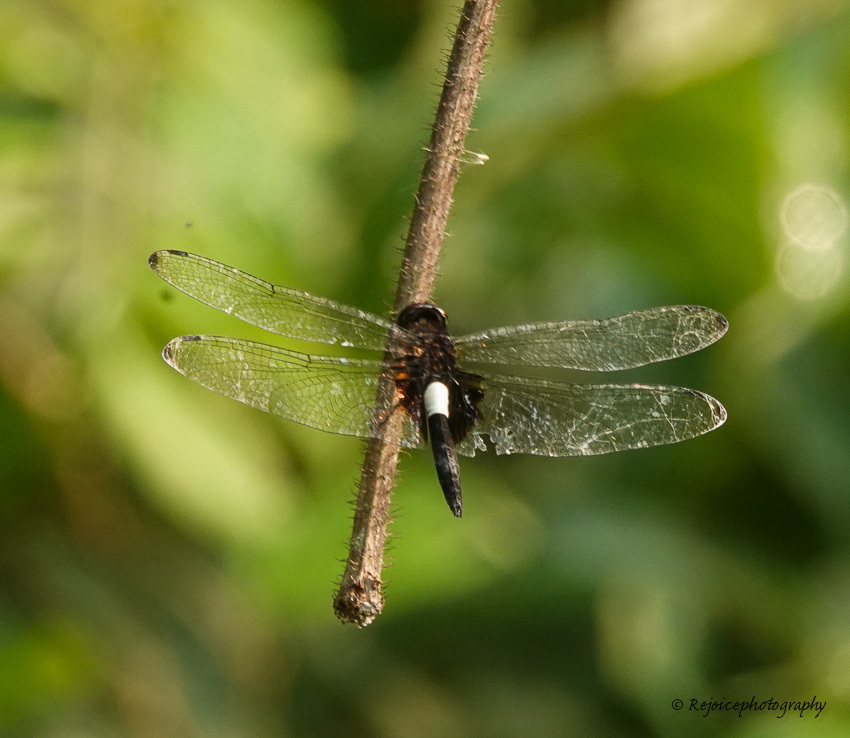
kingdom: Animalia
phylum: Arthropoda
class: Insecta
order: Odonata
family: Libellulidae
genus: Pseudothemis
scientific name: Pseudothemis zonata
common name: Pied skimmer
